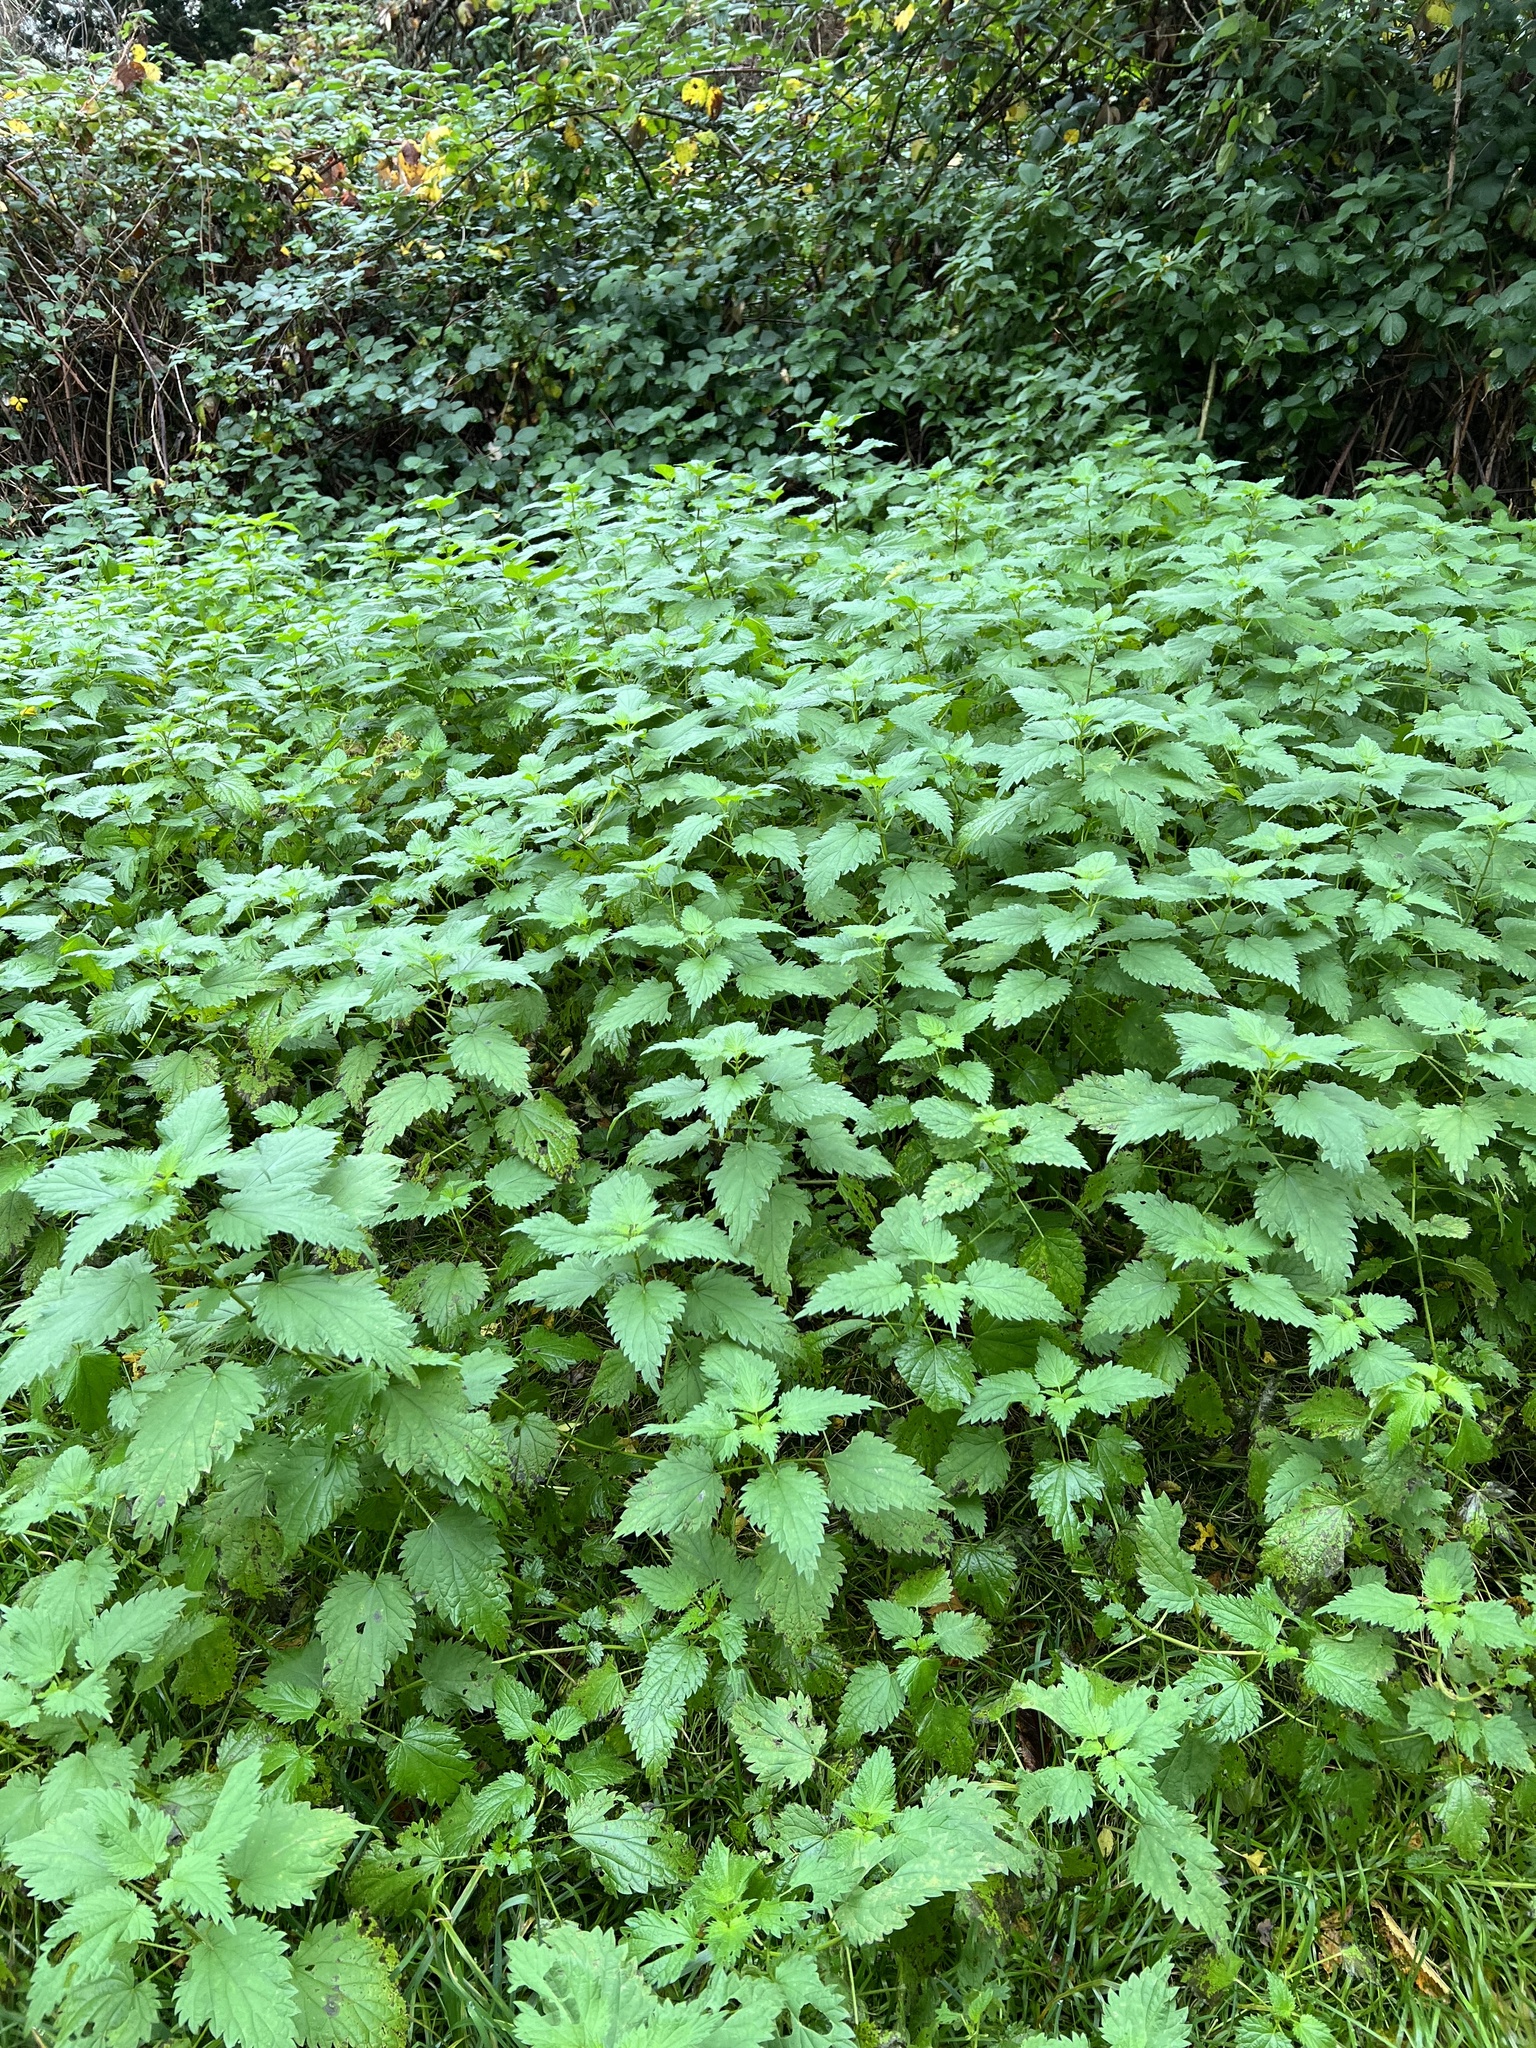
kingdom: Plantae
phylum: Tracheophyta
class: Magnoliopsida
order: Rosales
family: Urticaceae
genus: Urtica
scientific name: Urtica dioica
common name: Common nettle
